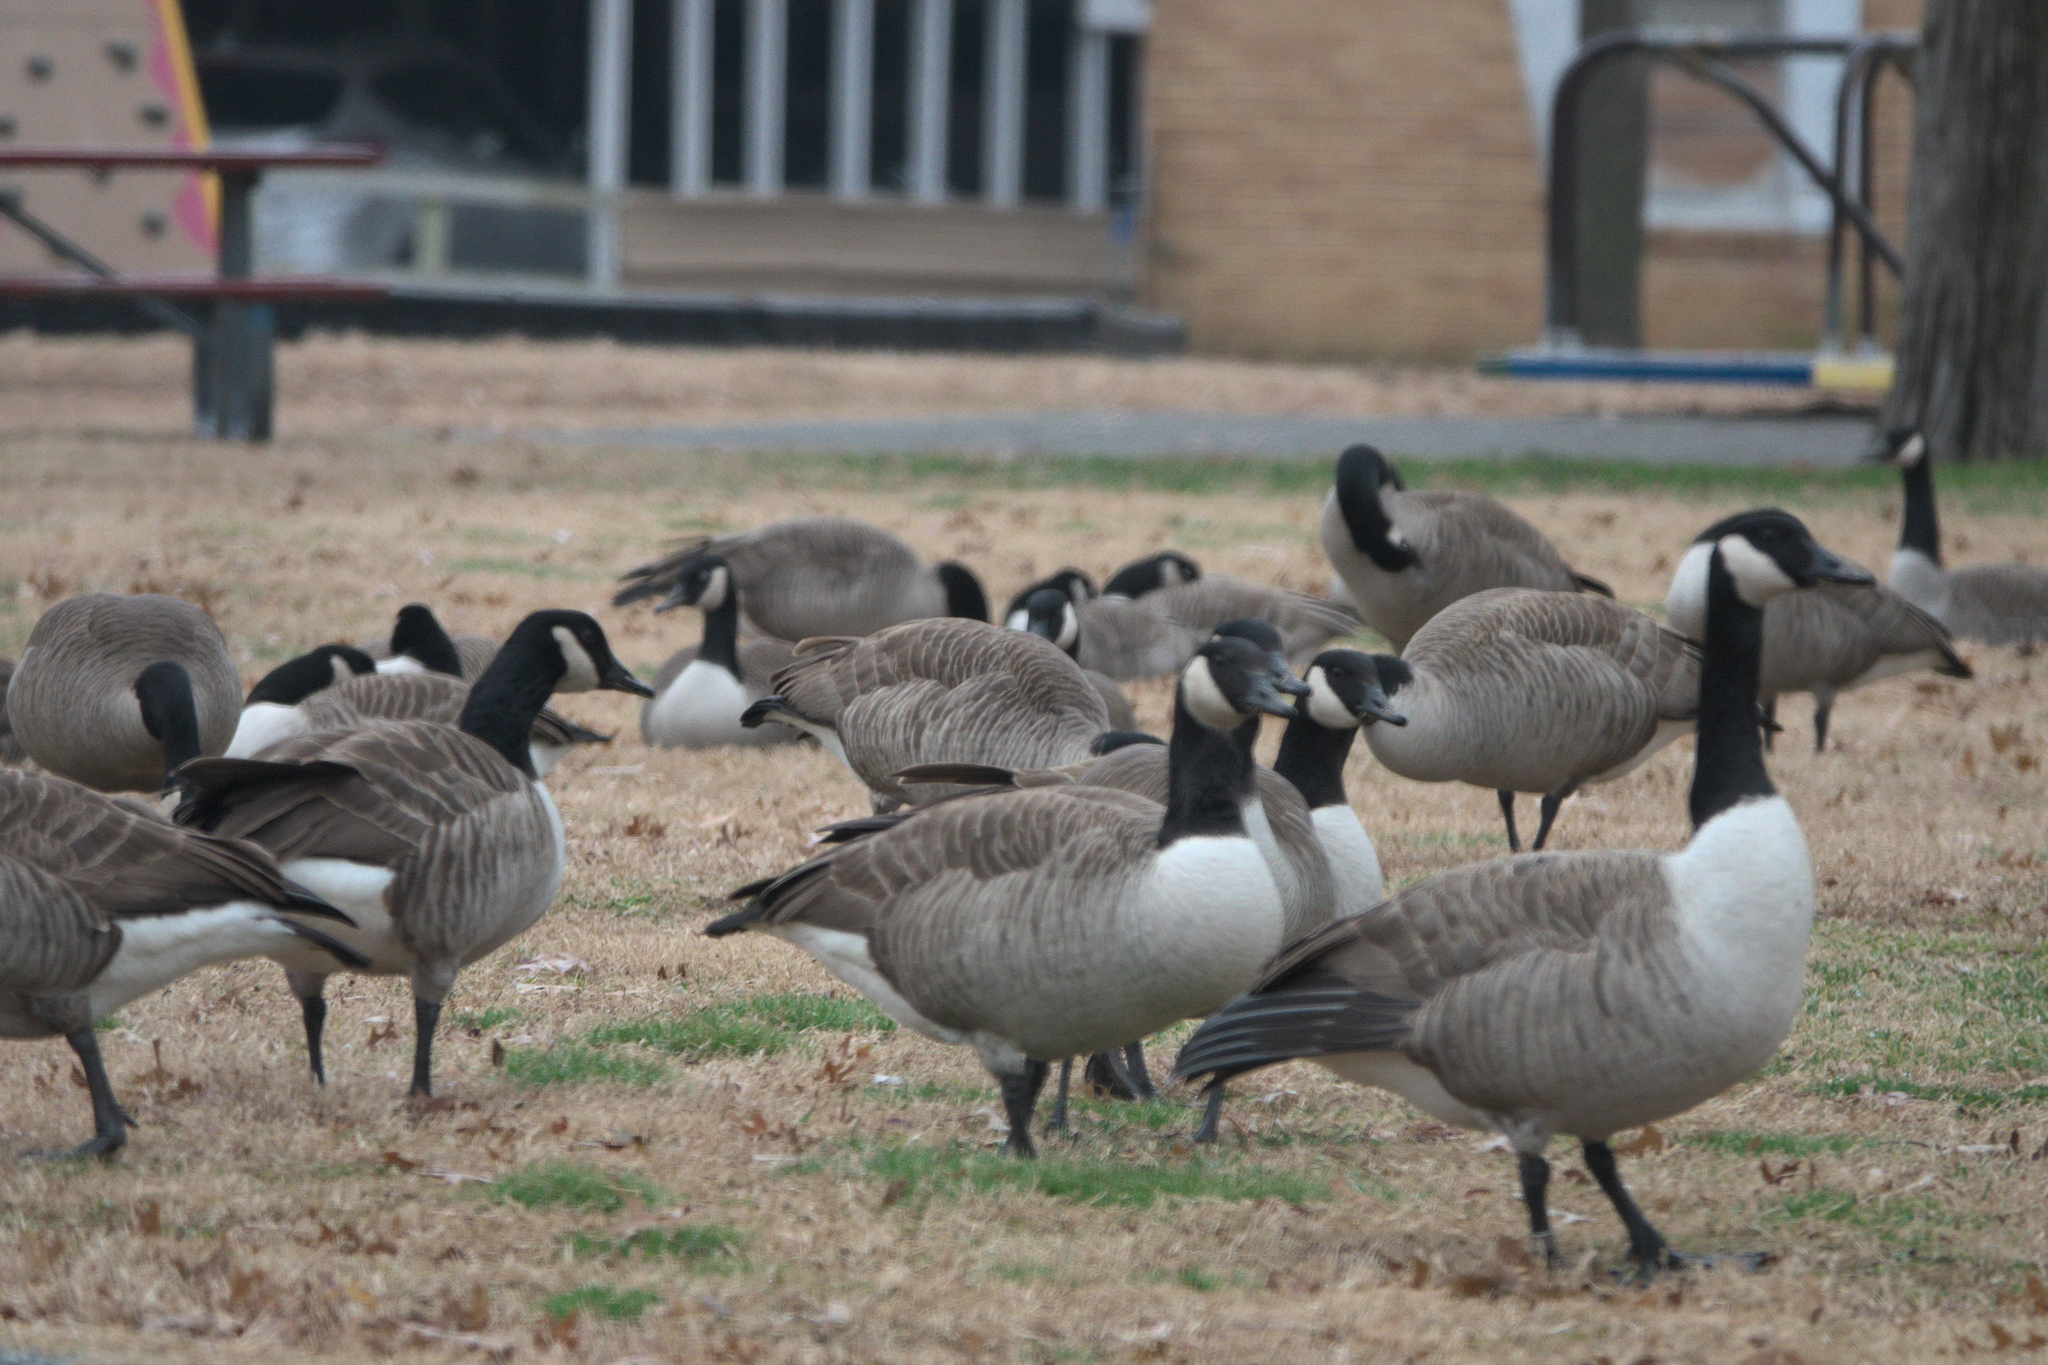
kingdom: Animalia
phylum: Chordata
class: Aves
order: Anseriformes
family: Anatidae
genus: Branta
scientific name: Branta canadensis
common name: Canada goose
